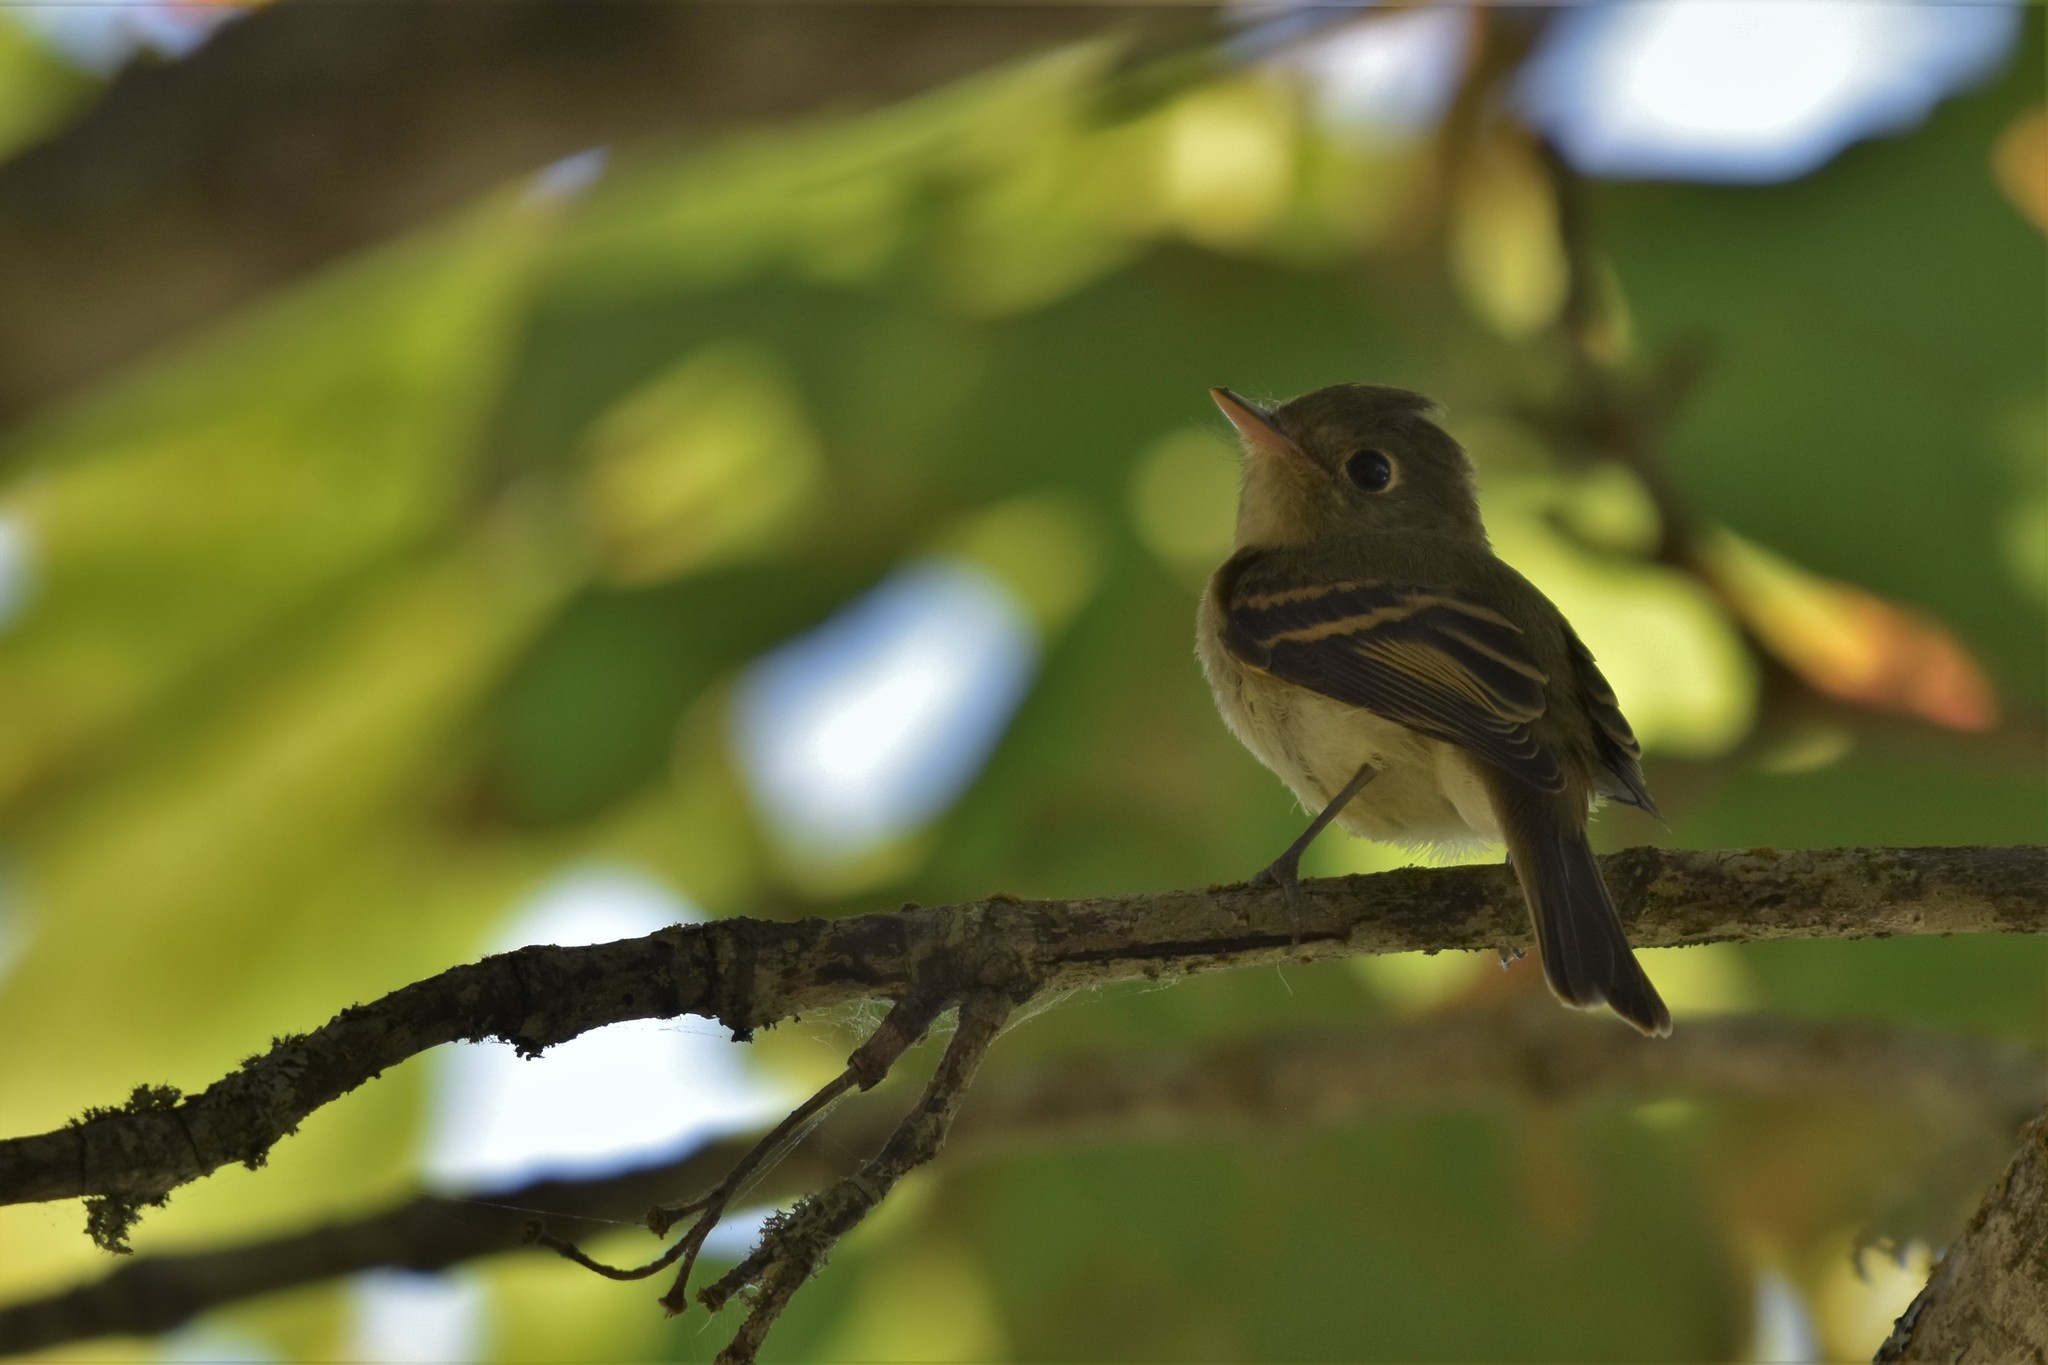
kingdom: Animalia
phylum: Chordata
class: Aves
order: Passeriformes
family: Tyrannidae
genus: Empidonax
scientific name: Empidonax difficilis
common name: Pacific-slope flycatcher
